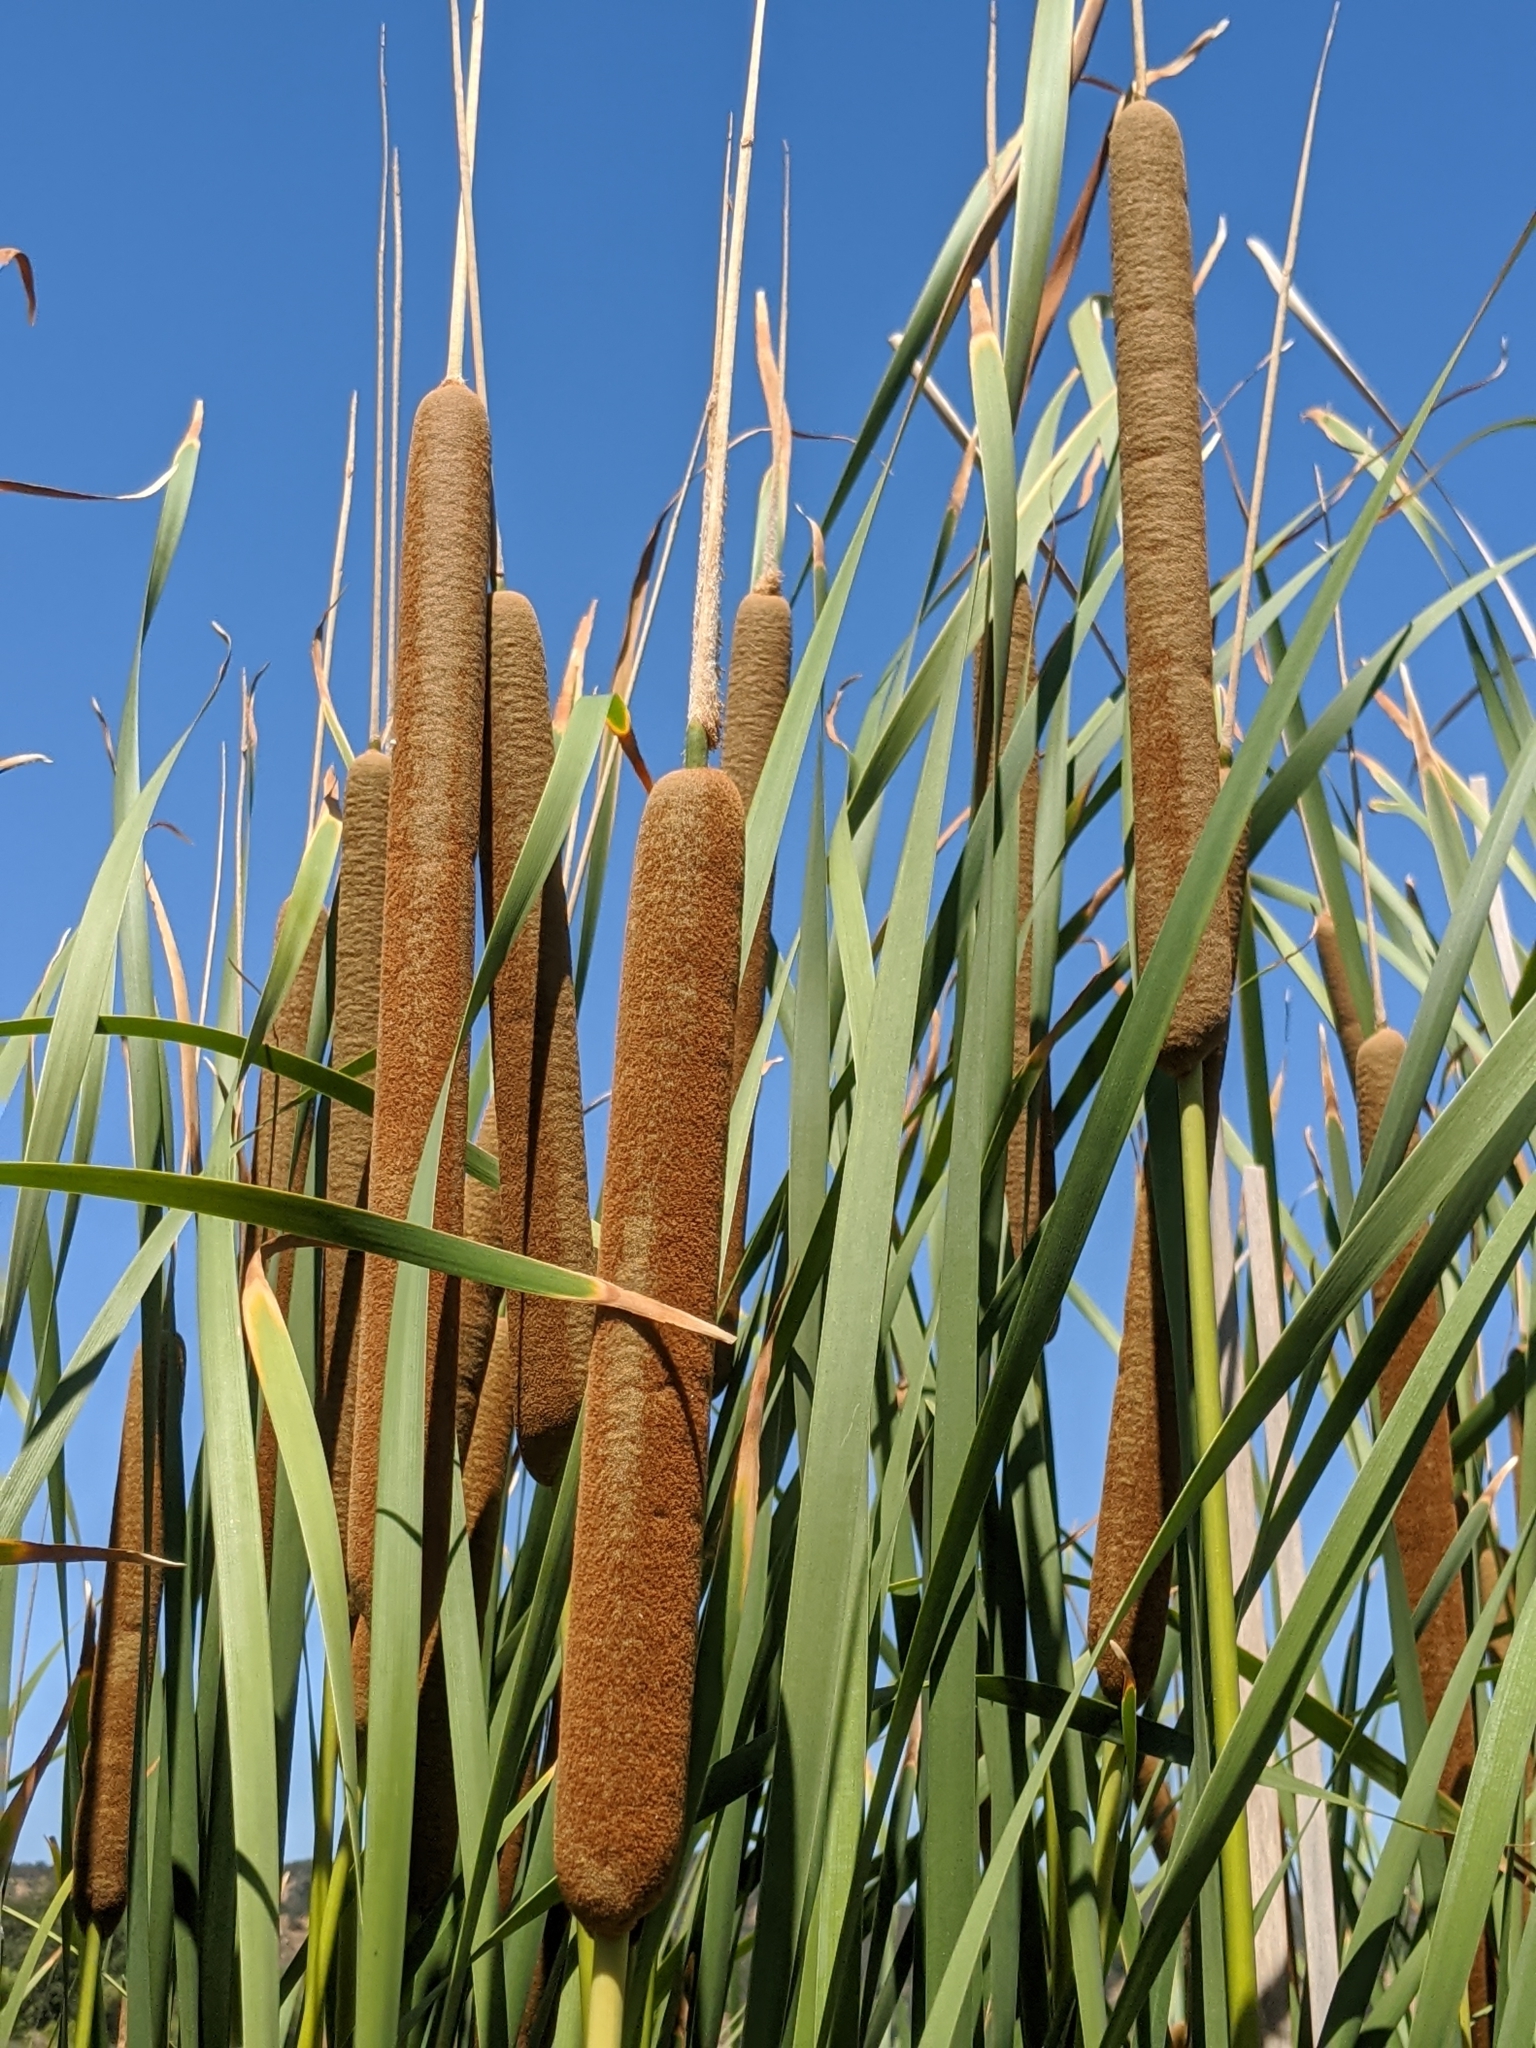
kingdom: Plantae
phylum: Tracheophyta
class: Liliopsida
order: Poales
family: Typhaceae
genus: Typha
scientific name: Typha domingensis
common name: Southern cattail
